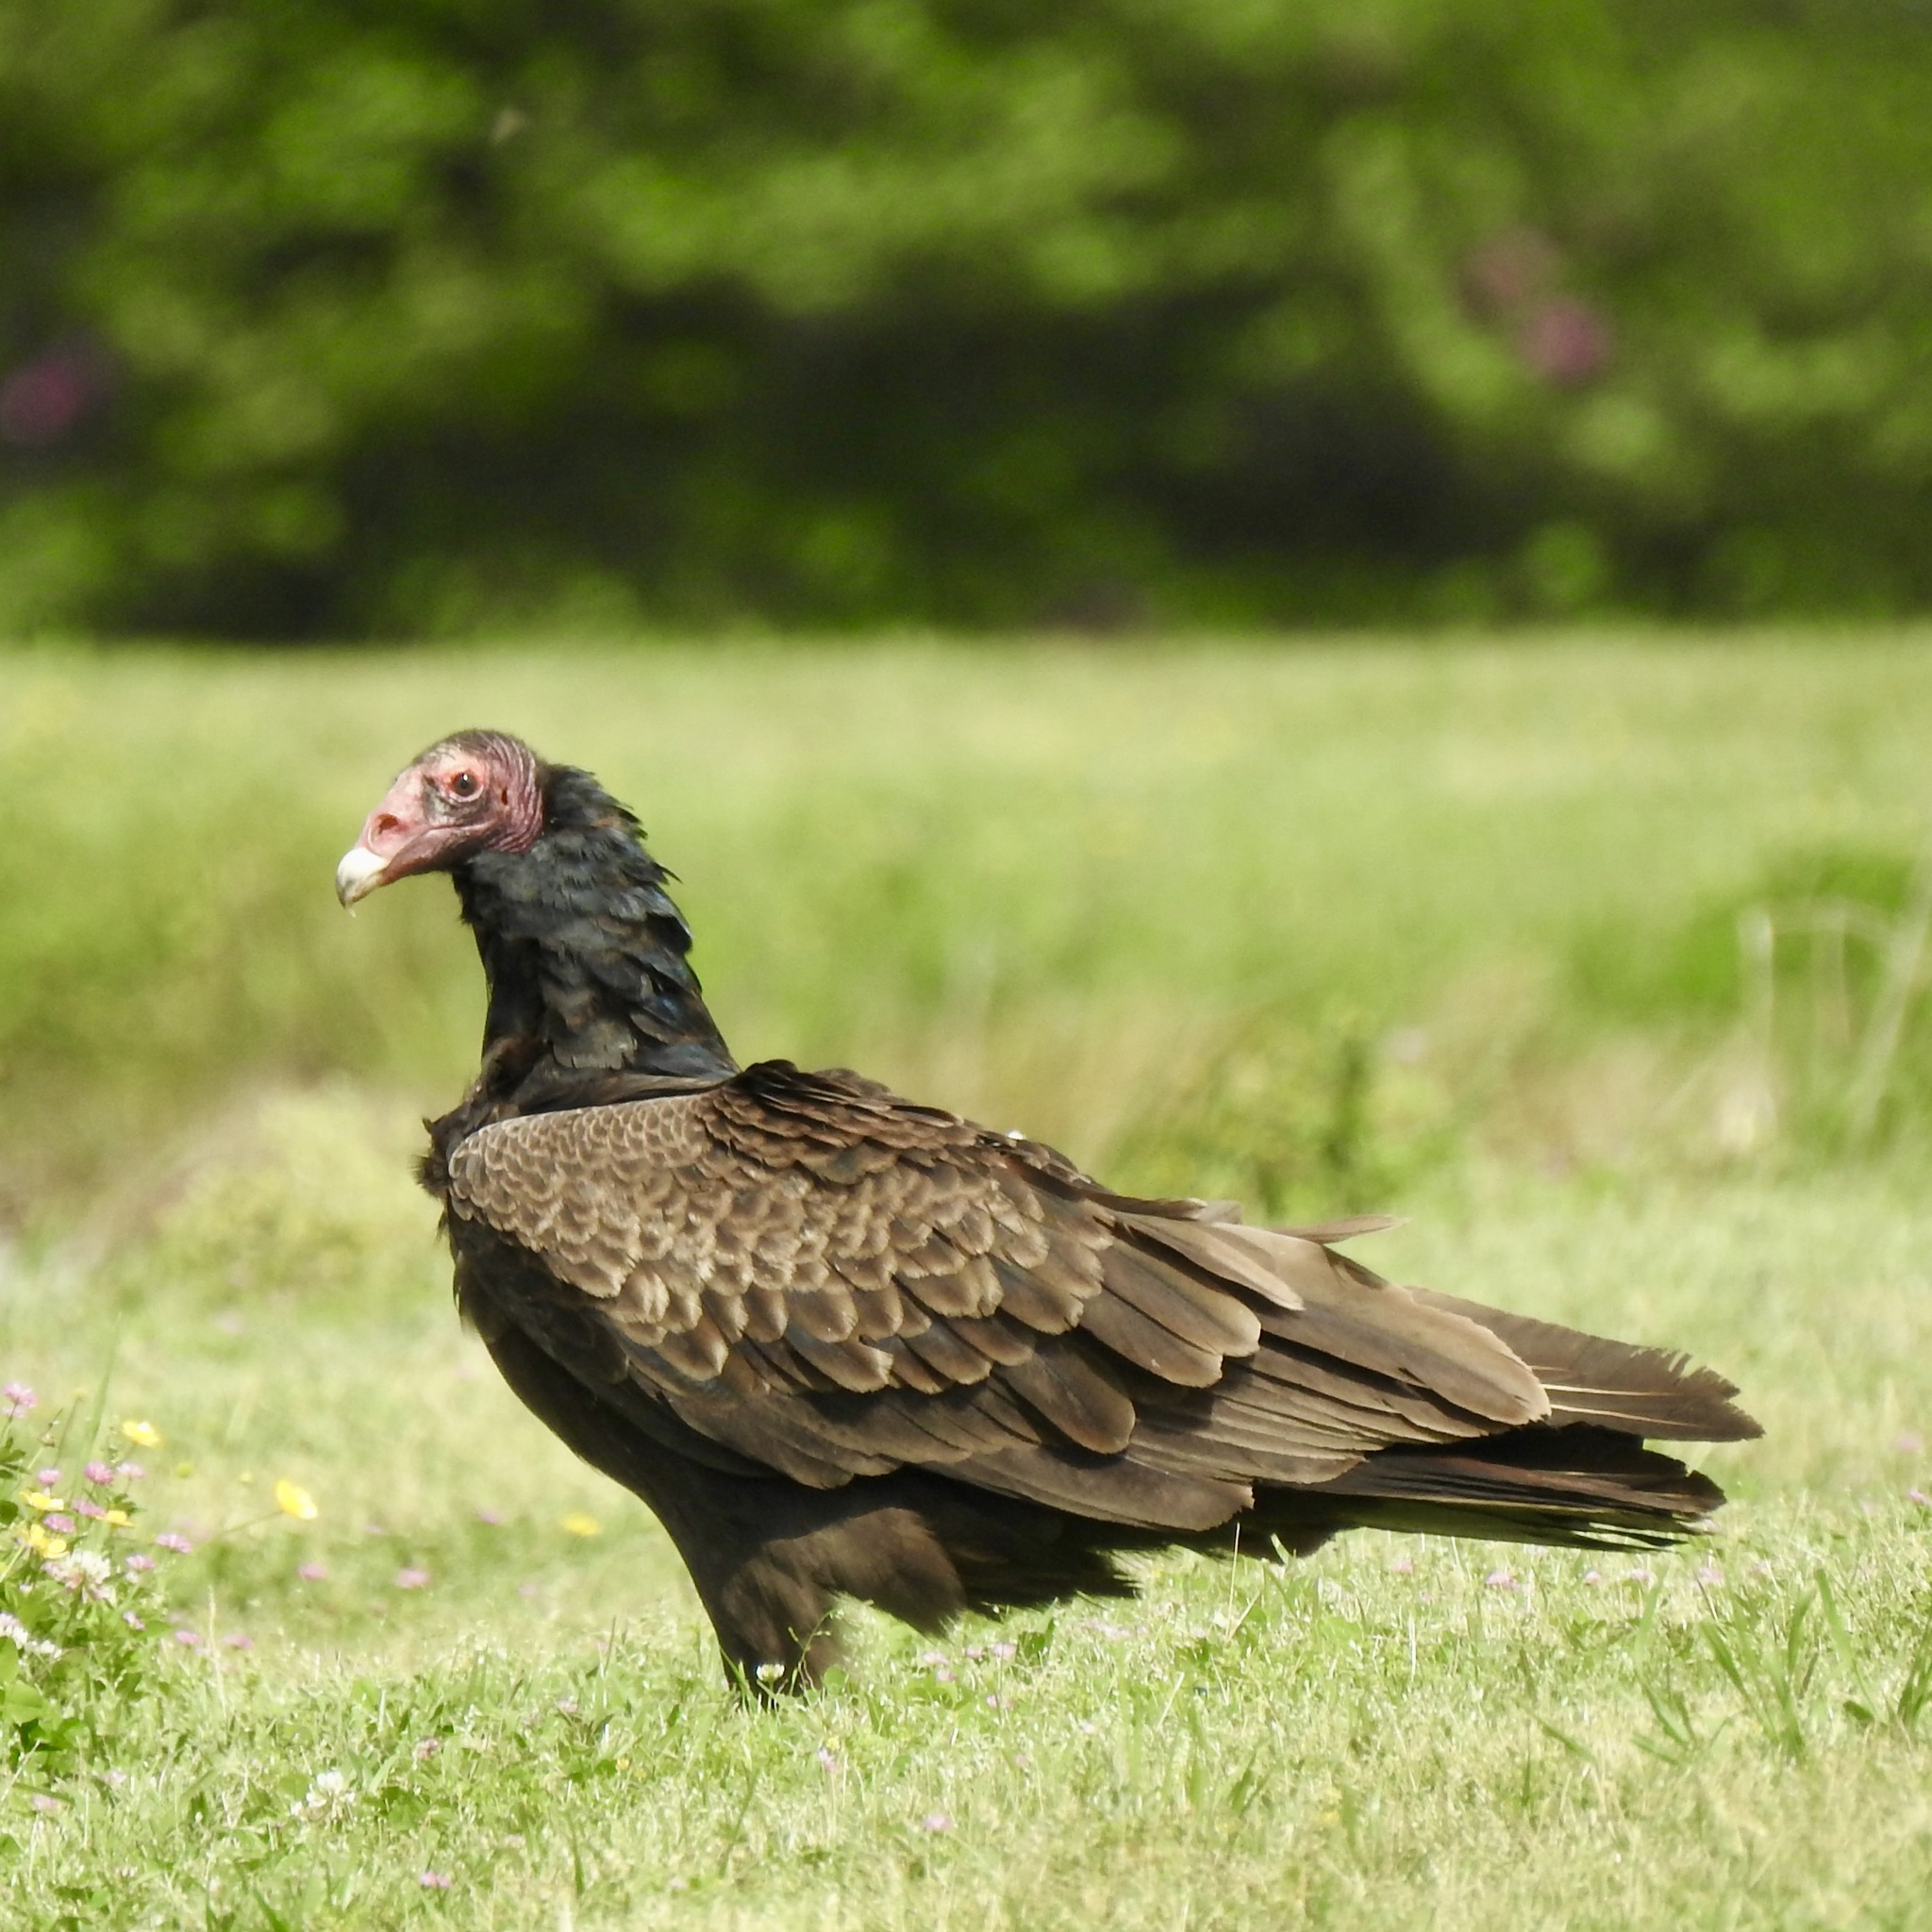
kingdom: Animalia
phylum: Chordata
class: Aves
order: Accipitriformes
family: Cathartidae
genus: Cathartes
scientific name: Cathartes aura
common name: Turkey vulture
